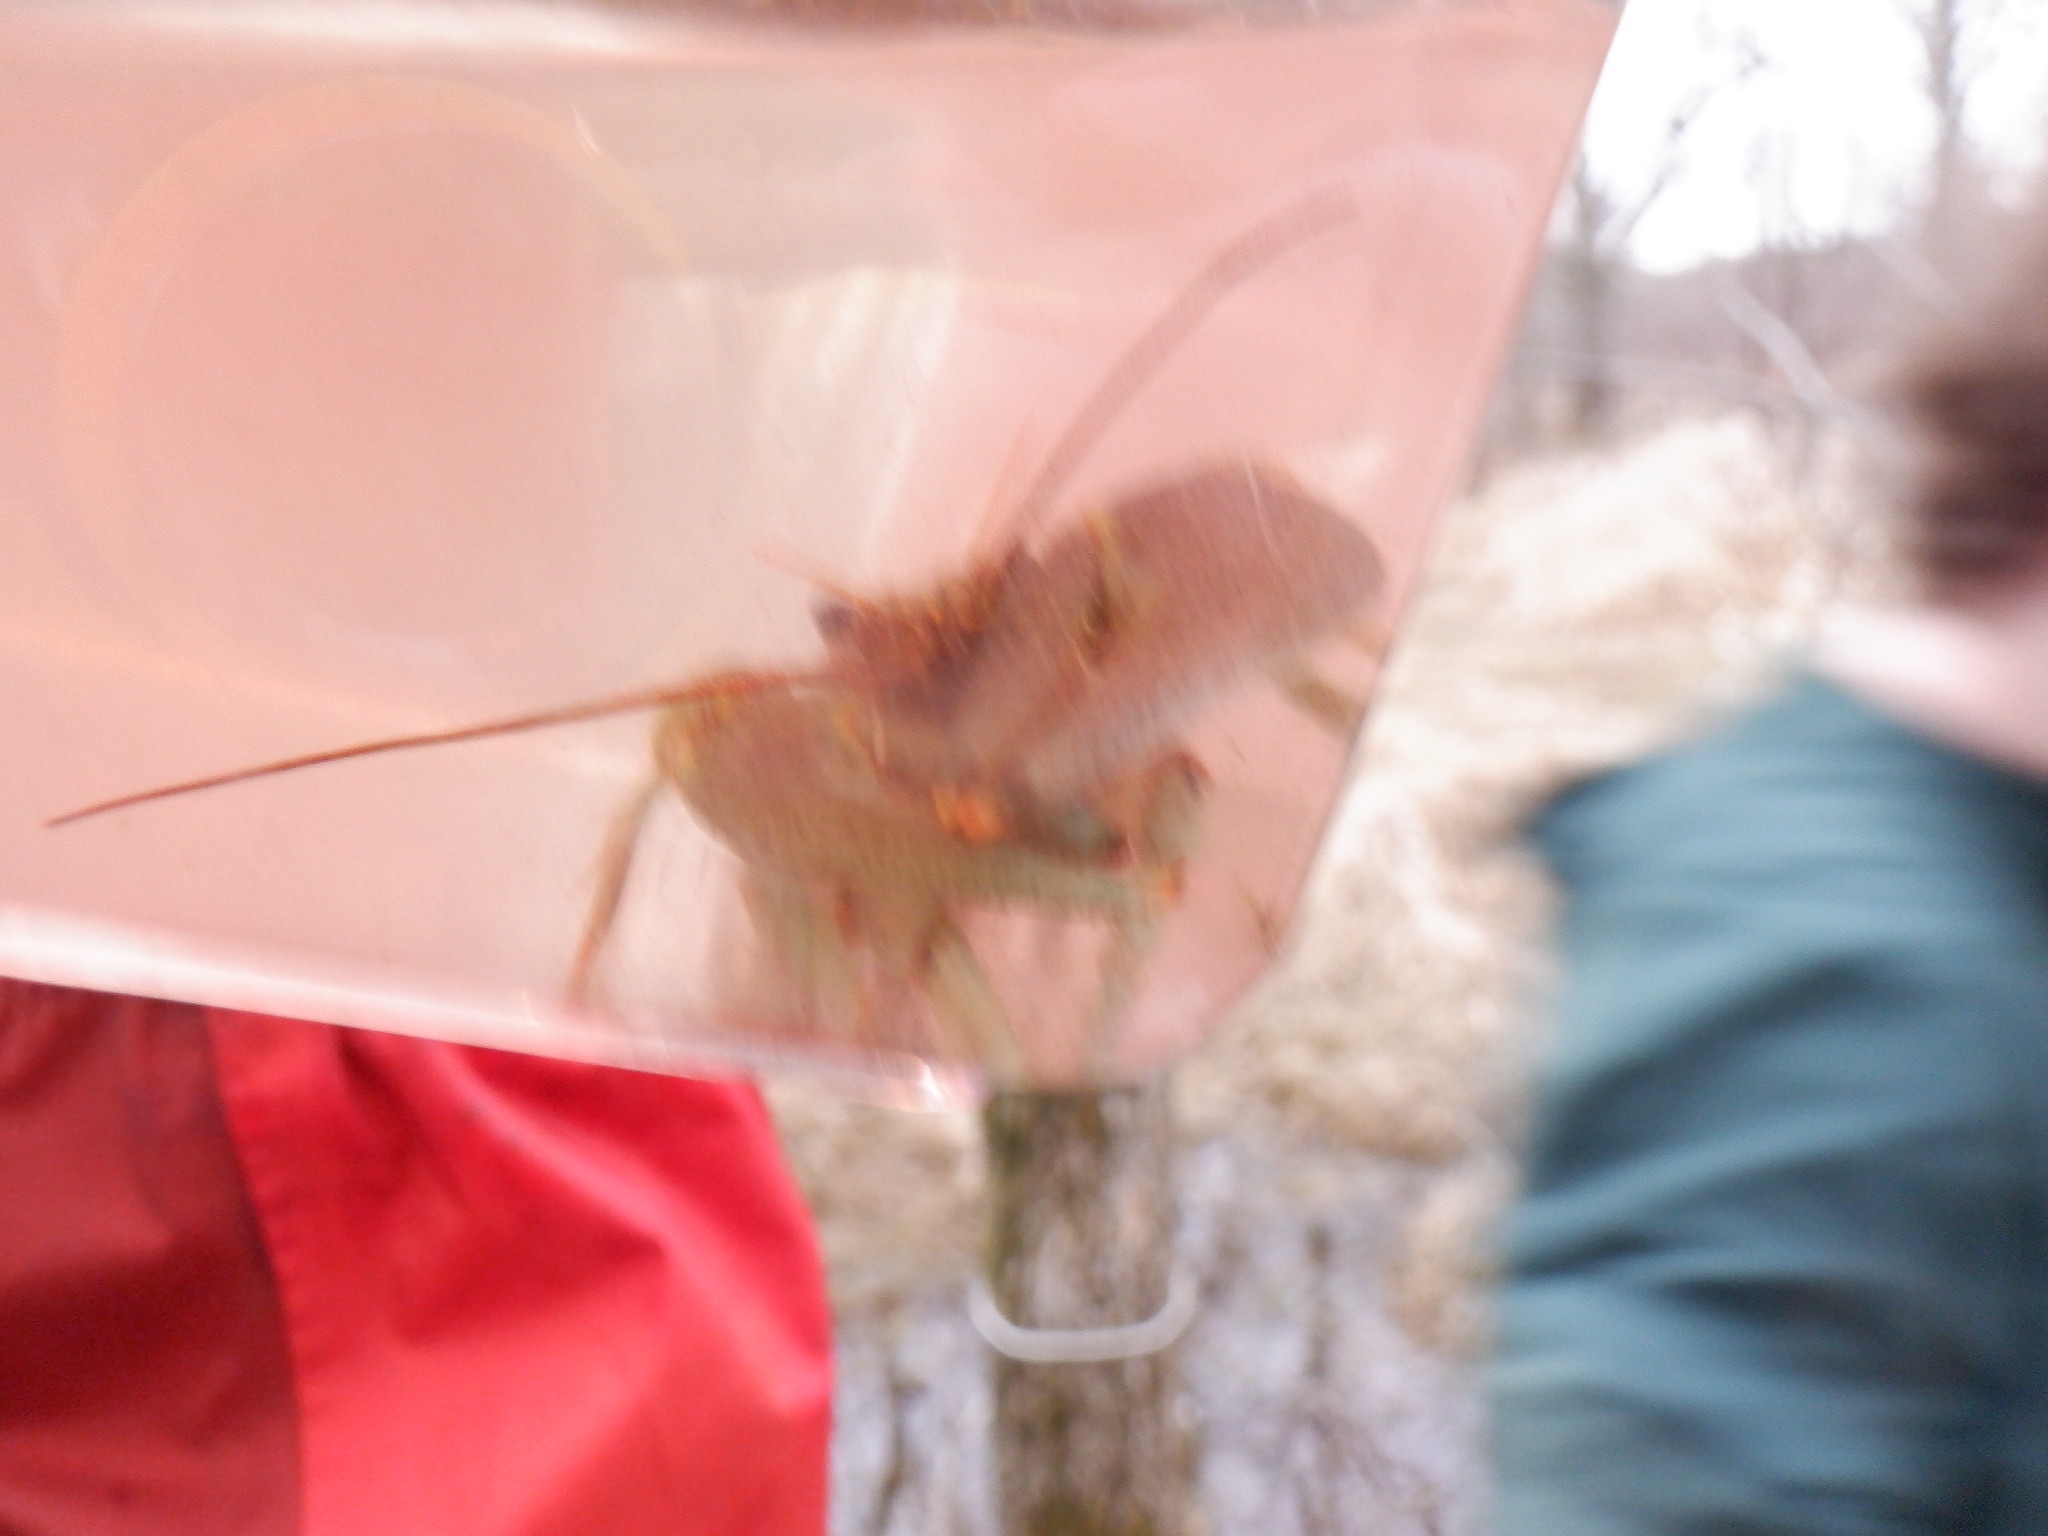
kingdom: Animalia
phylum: Arthropoda
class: Malacostraca
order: Decapoda
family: Cambaridae
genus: Faxonius
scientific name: Faxonius rusticus
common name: Rusty crayfish
